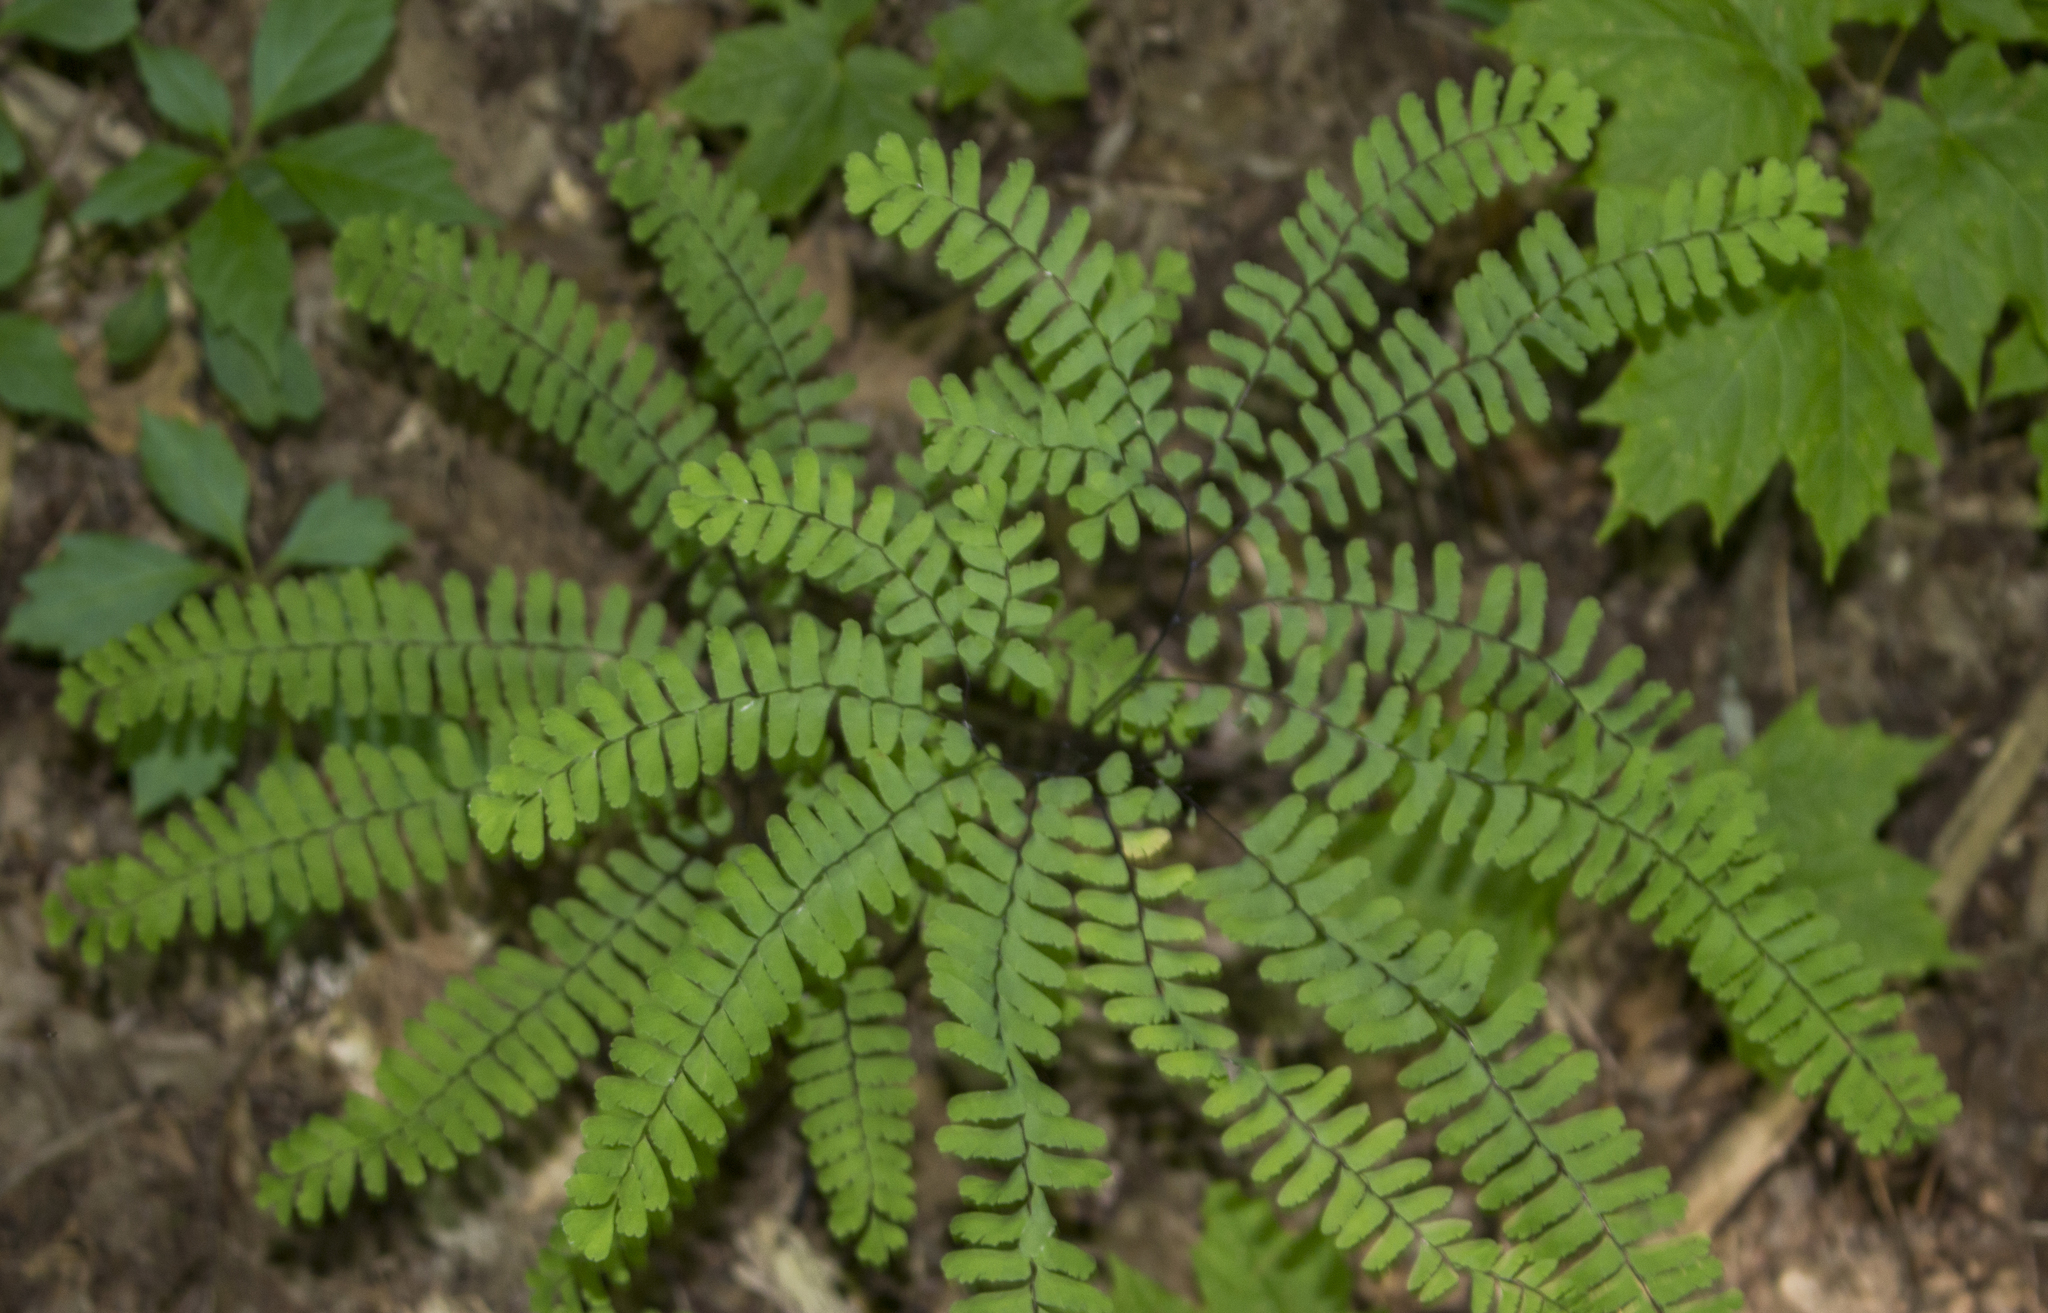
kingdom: Plantae
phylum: Tracheophyta
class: Polypodiopsida
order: Polypodiales
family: Pteridaceae
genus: Adiantum
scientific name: Adiantum pedatum
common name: Five-finger fern
